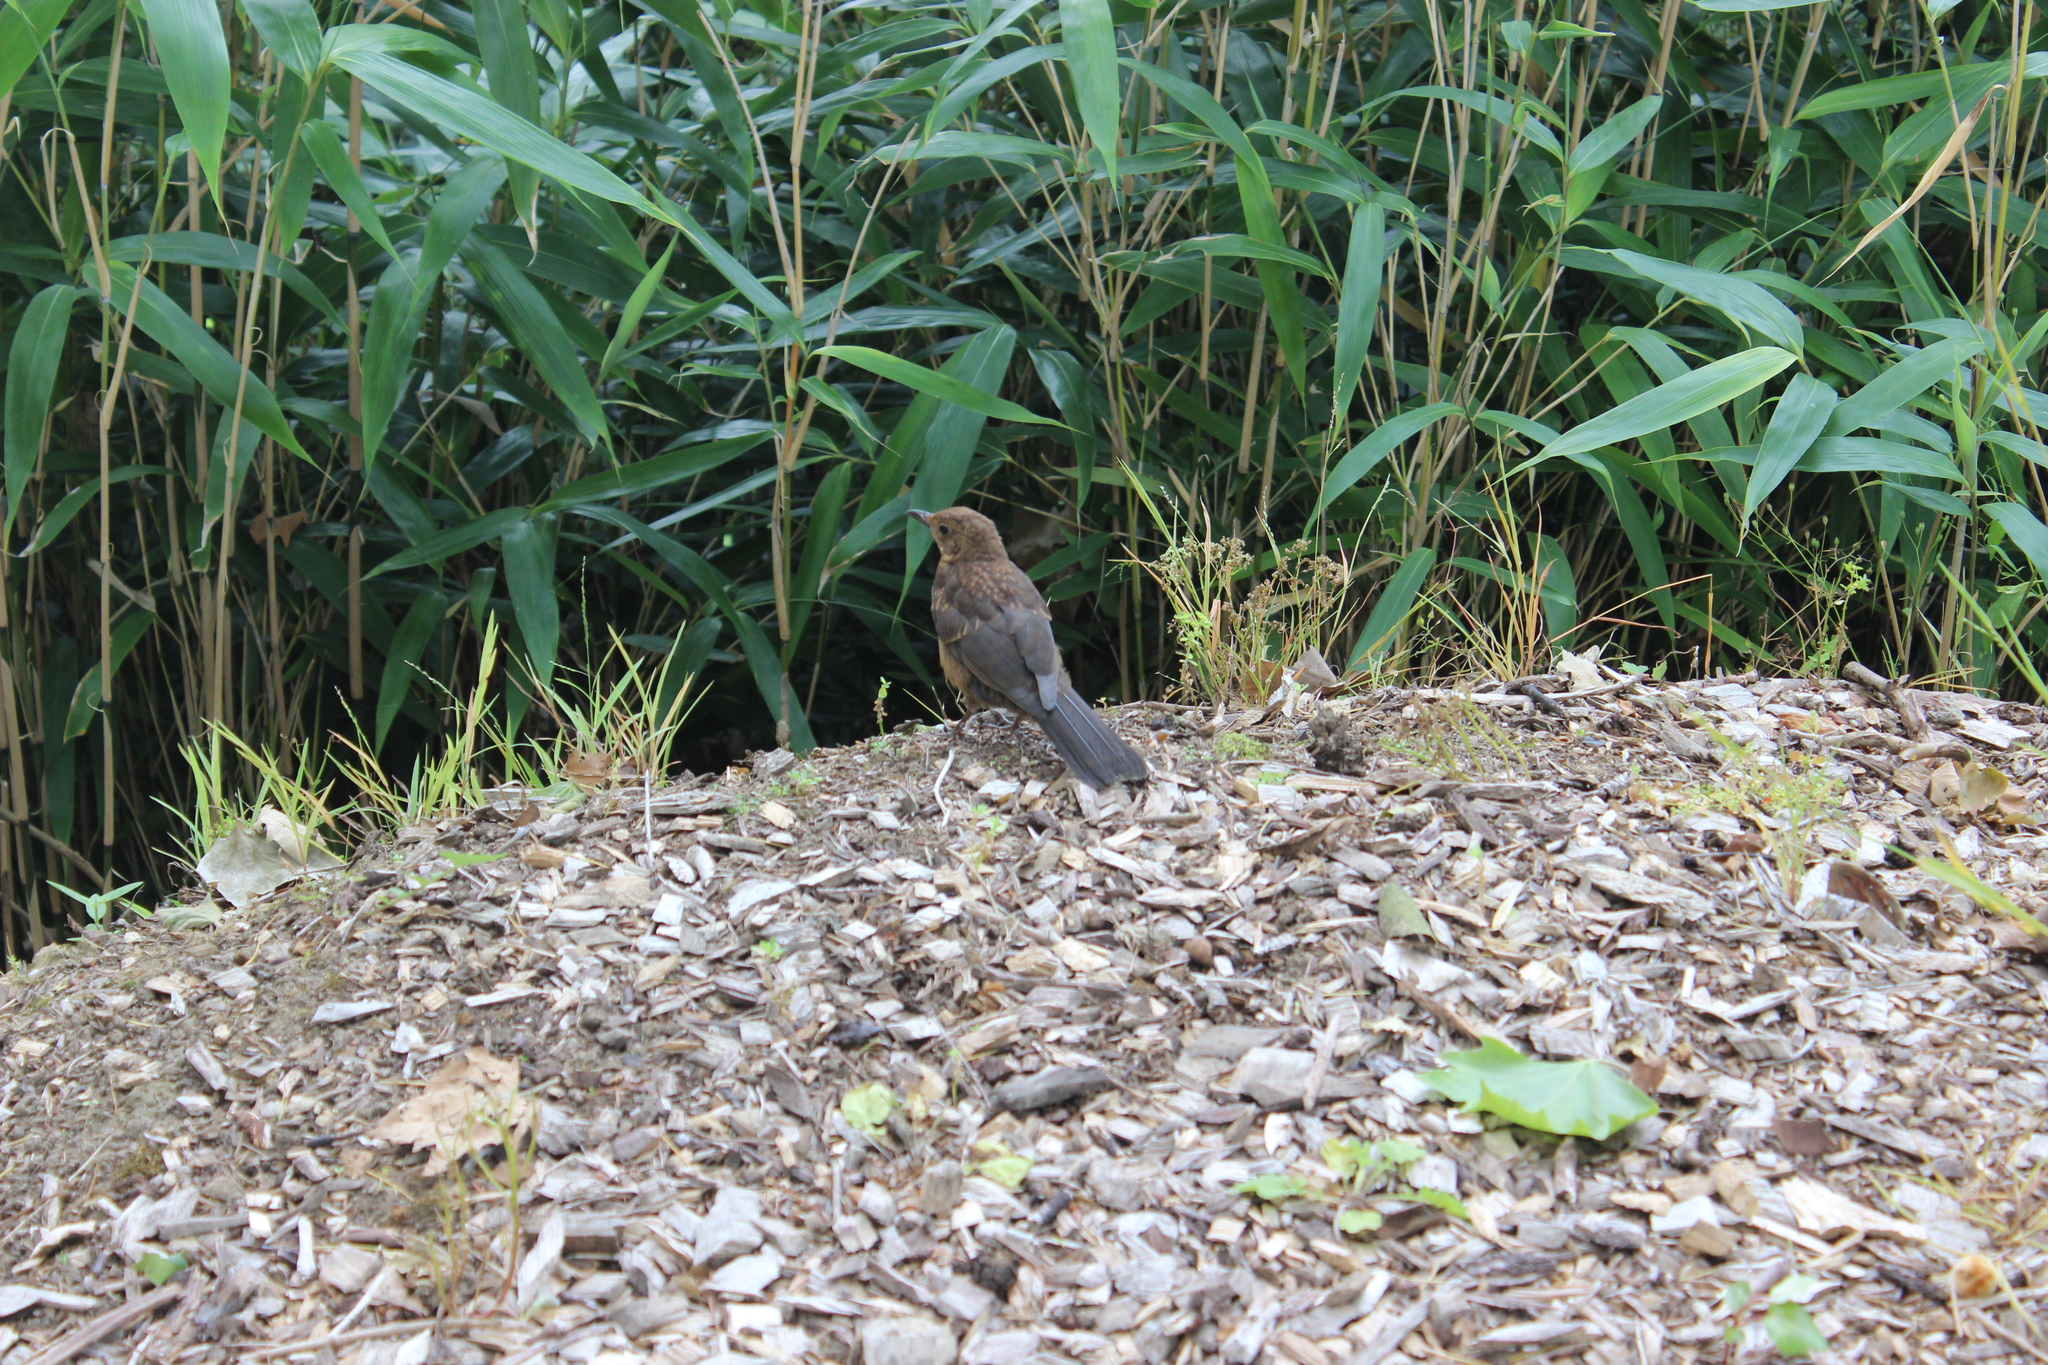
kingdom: Animalia
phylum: Chordata
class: Aves
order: Passeriformes
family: Turdidae
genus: Turdus
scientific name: Turdus merula
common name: Common blackbird
